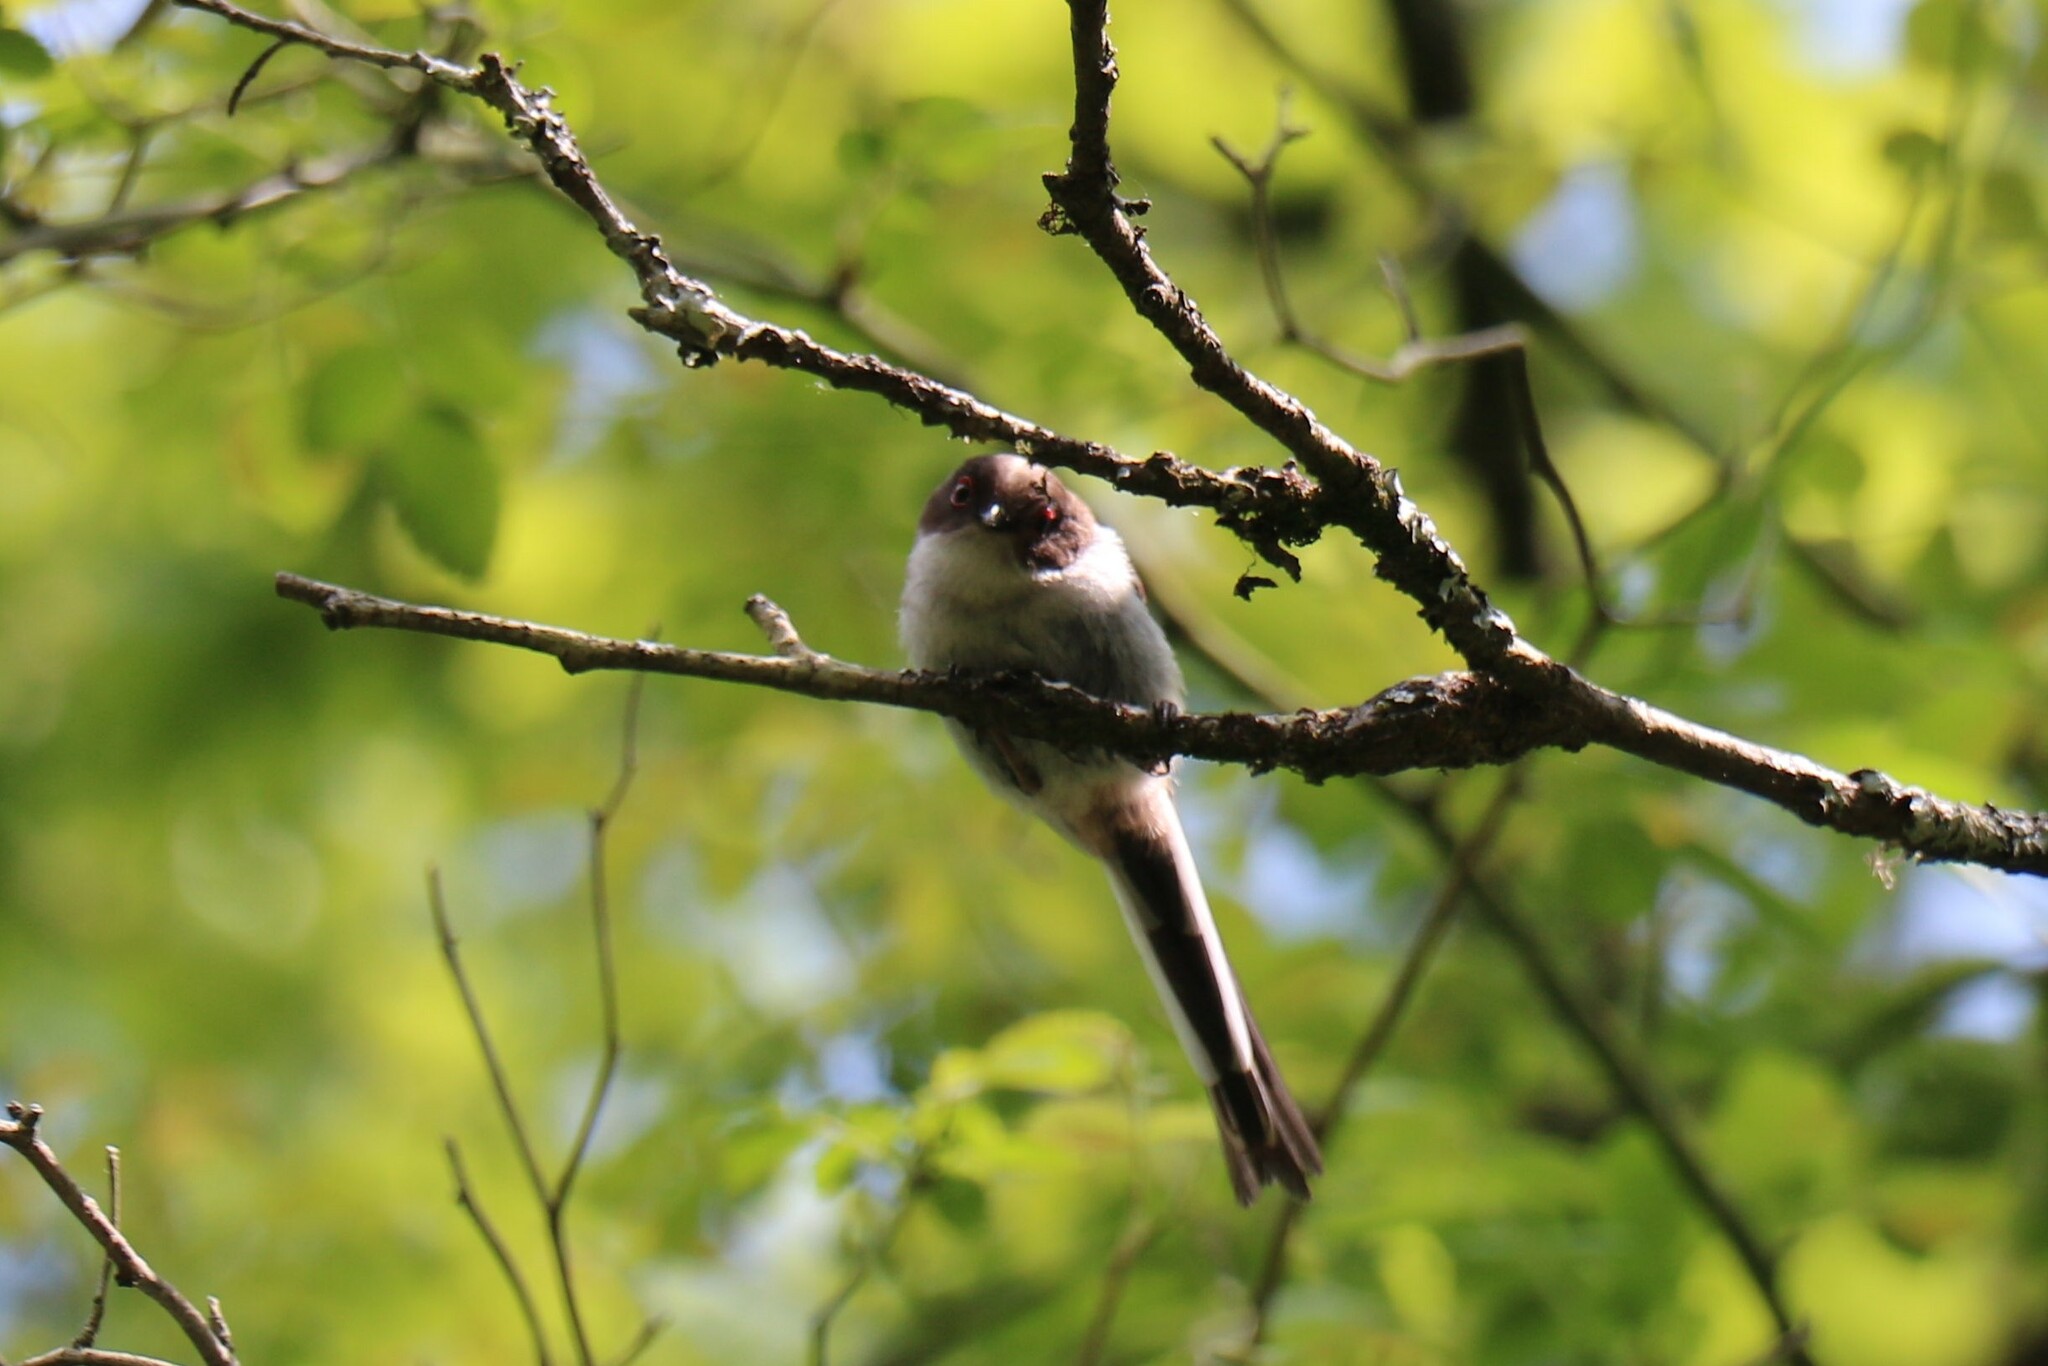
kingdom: Animalia
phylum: Chordata
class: Aves
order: Passeriformes
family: Aegithalidae
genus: Aegithalos
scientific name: Aegithalos caudatus
